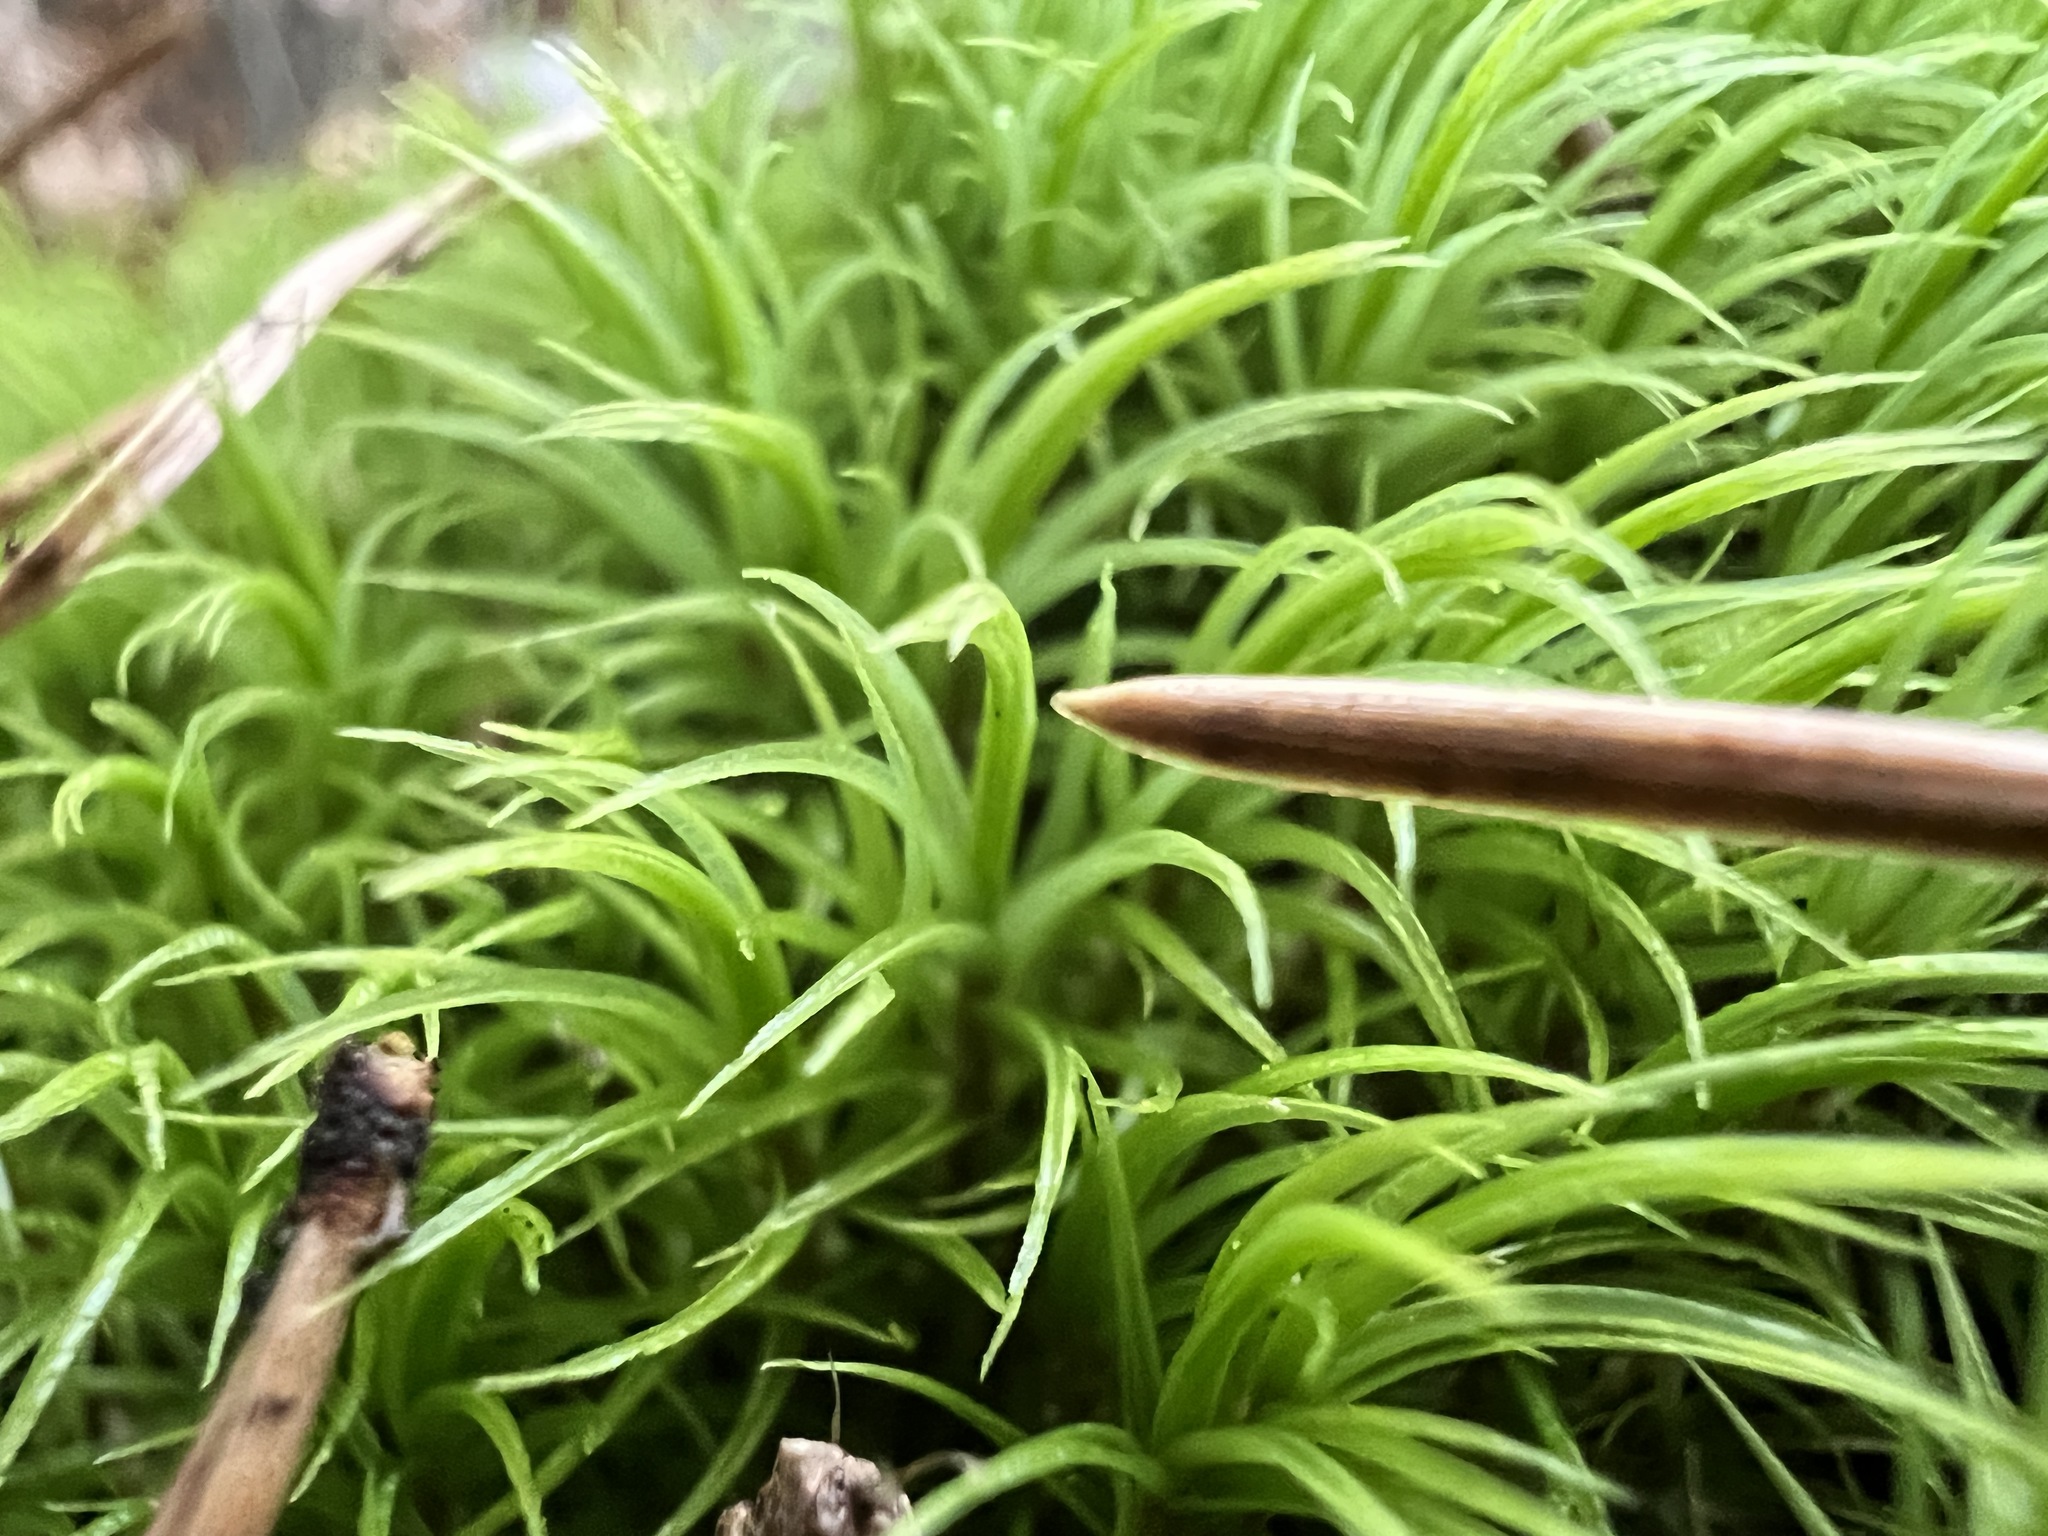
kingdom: Plantae
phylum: Bryophyta
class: Bryopsida
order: Dicranales
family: Dicranaceae
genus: Dicranum
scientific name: Dicranum scoparium
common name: Broom fork-moss
